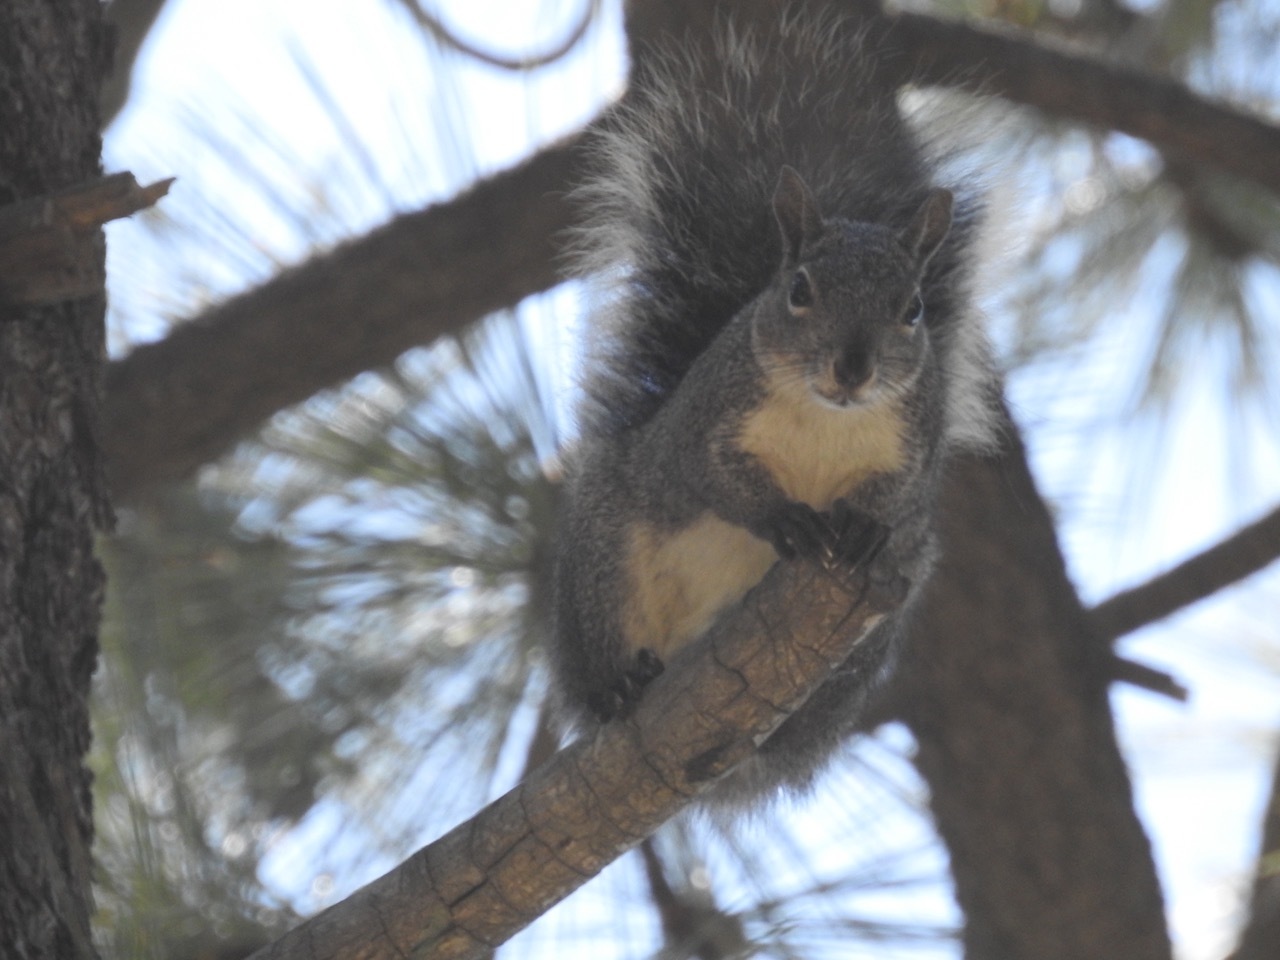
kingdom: Animalia
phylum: Chordata
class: Mammalia
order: Rodentia
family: Sciuridae
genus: Sciurus
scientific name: Sciurus griseus
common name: Western gray squirrel
